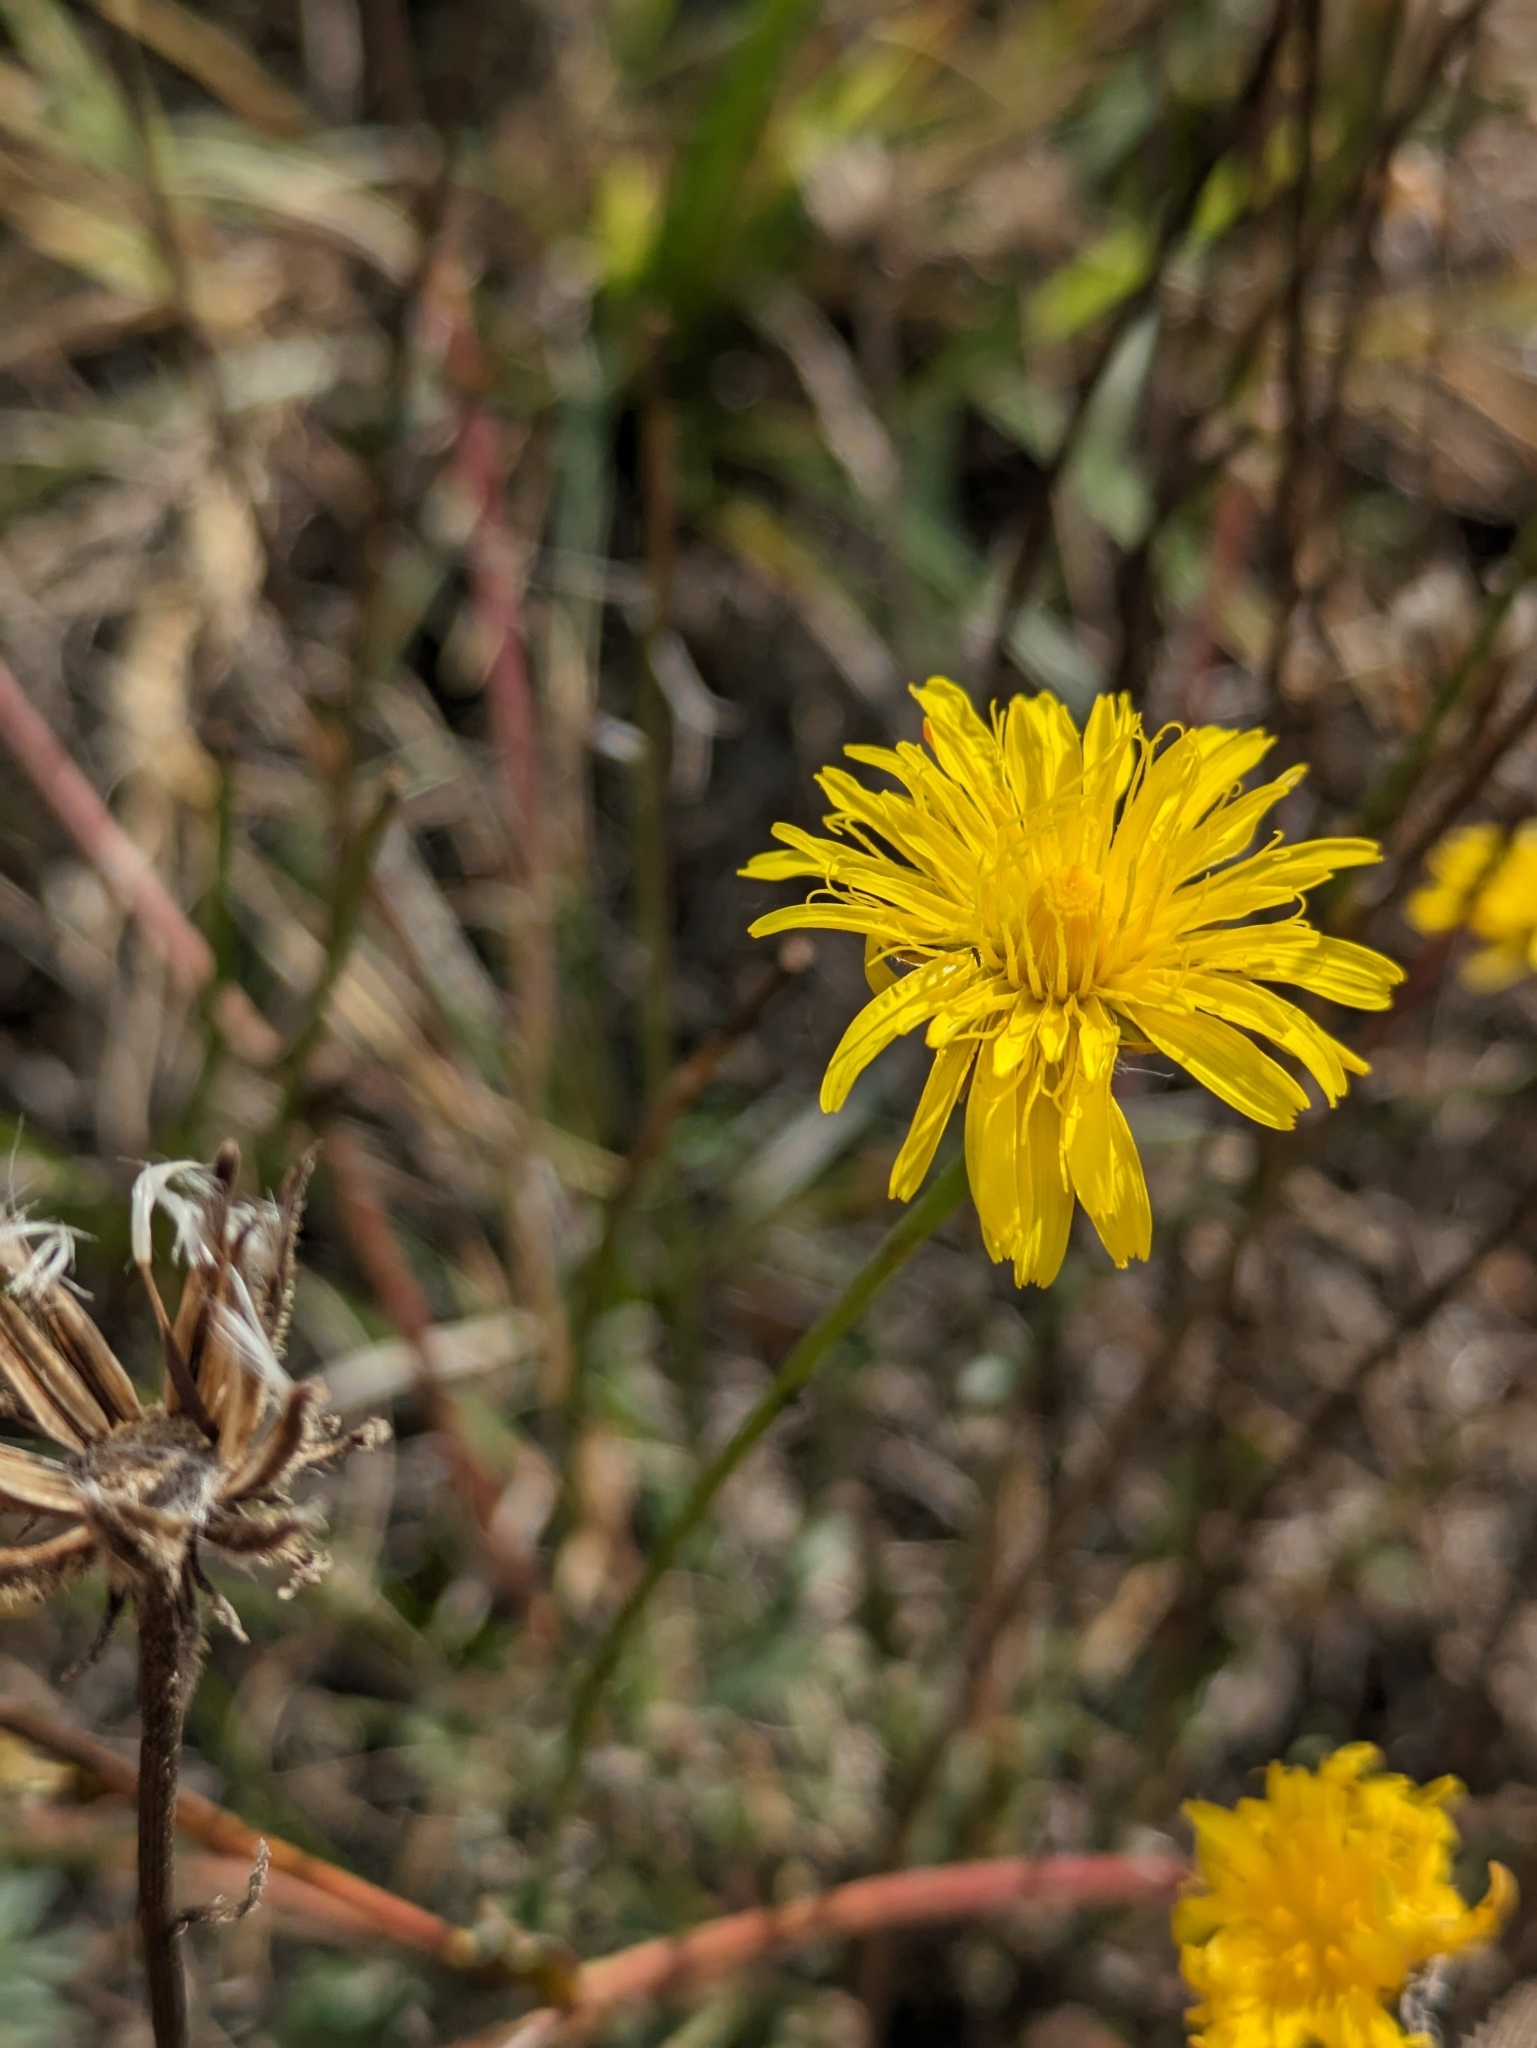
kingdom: Plantae
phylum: Tracheophyta
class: Magnoliopsida
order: Asterales
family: Asteraceae
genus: Crepis
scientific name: Crepis foetida
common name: Stinking hawk's-beard
